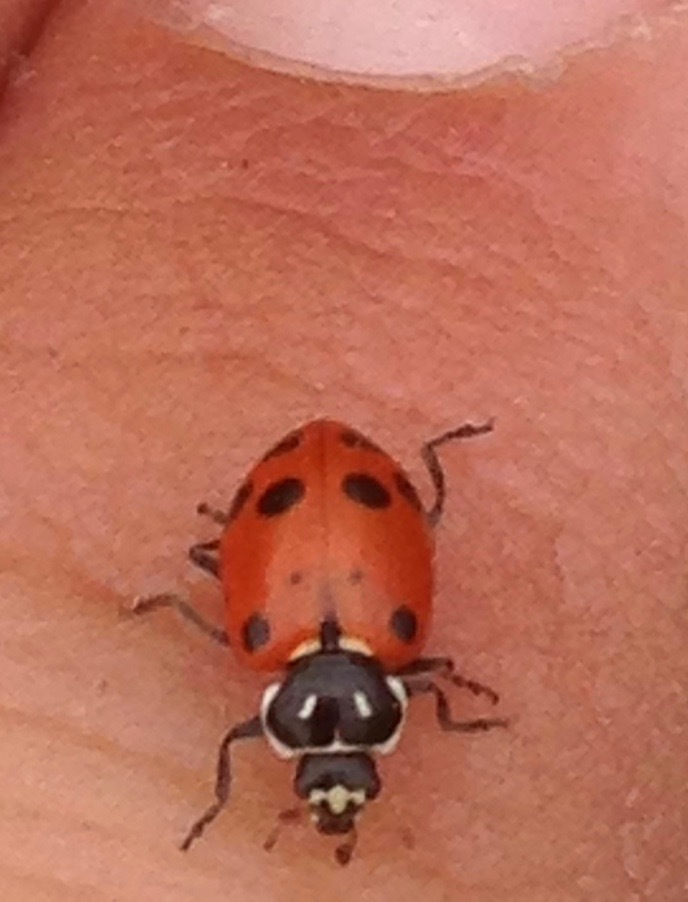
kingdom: Animalia
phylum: Arthropoda
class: Insecta
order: Coleoptera
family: Coccinellidae
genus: Hippodamia
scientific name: Hippodamia convergens
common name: Convergent lady beetle
